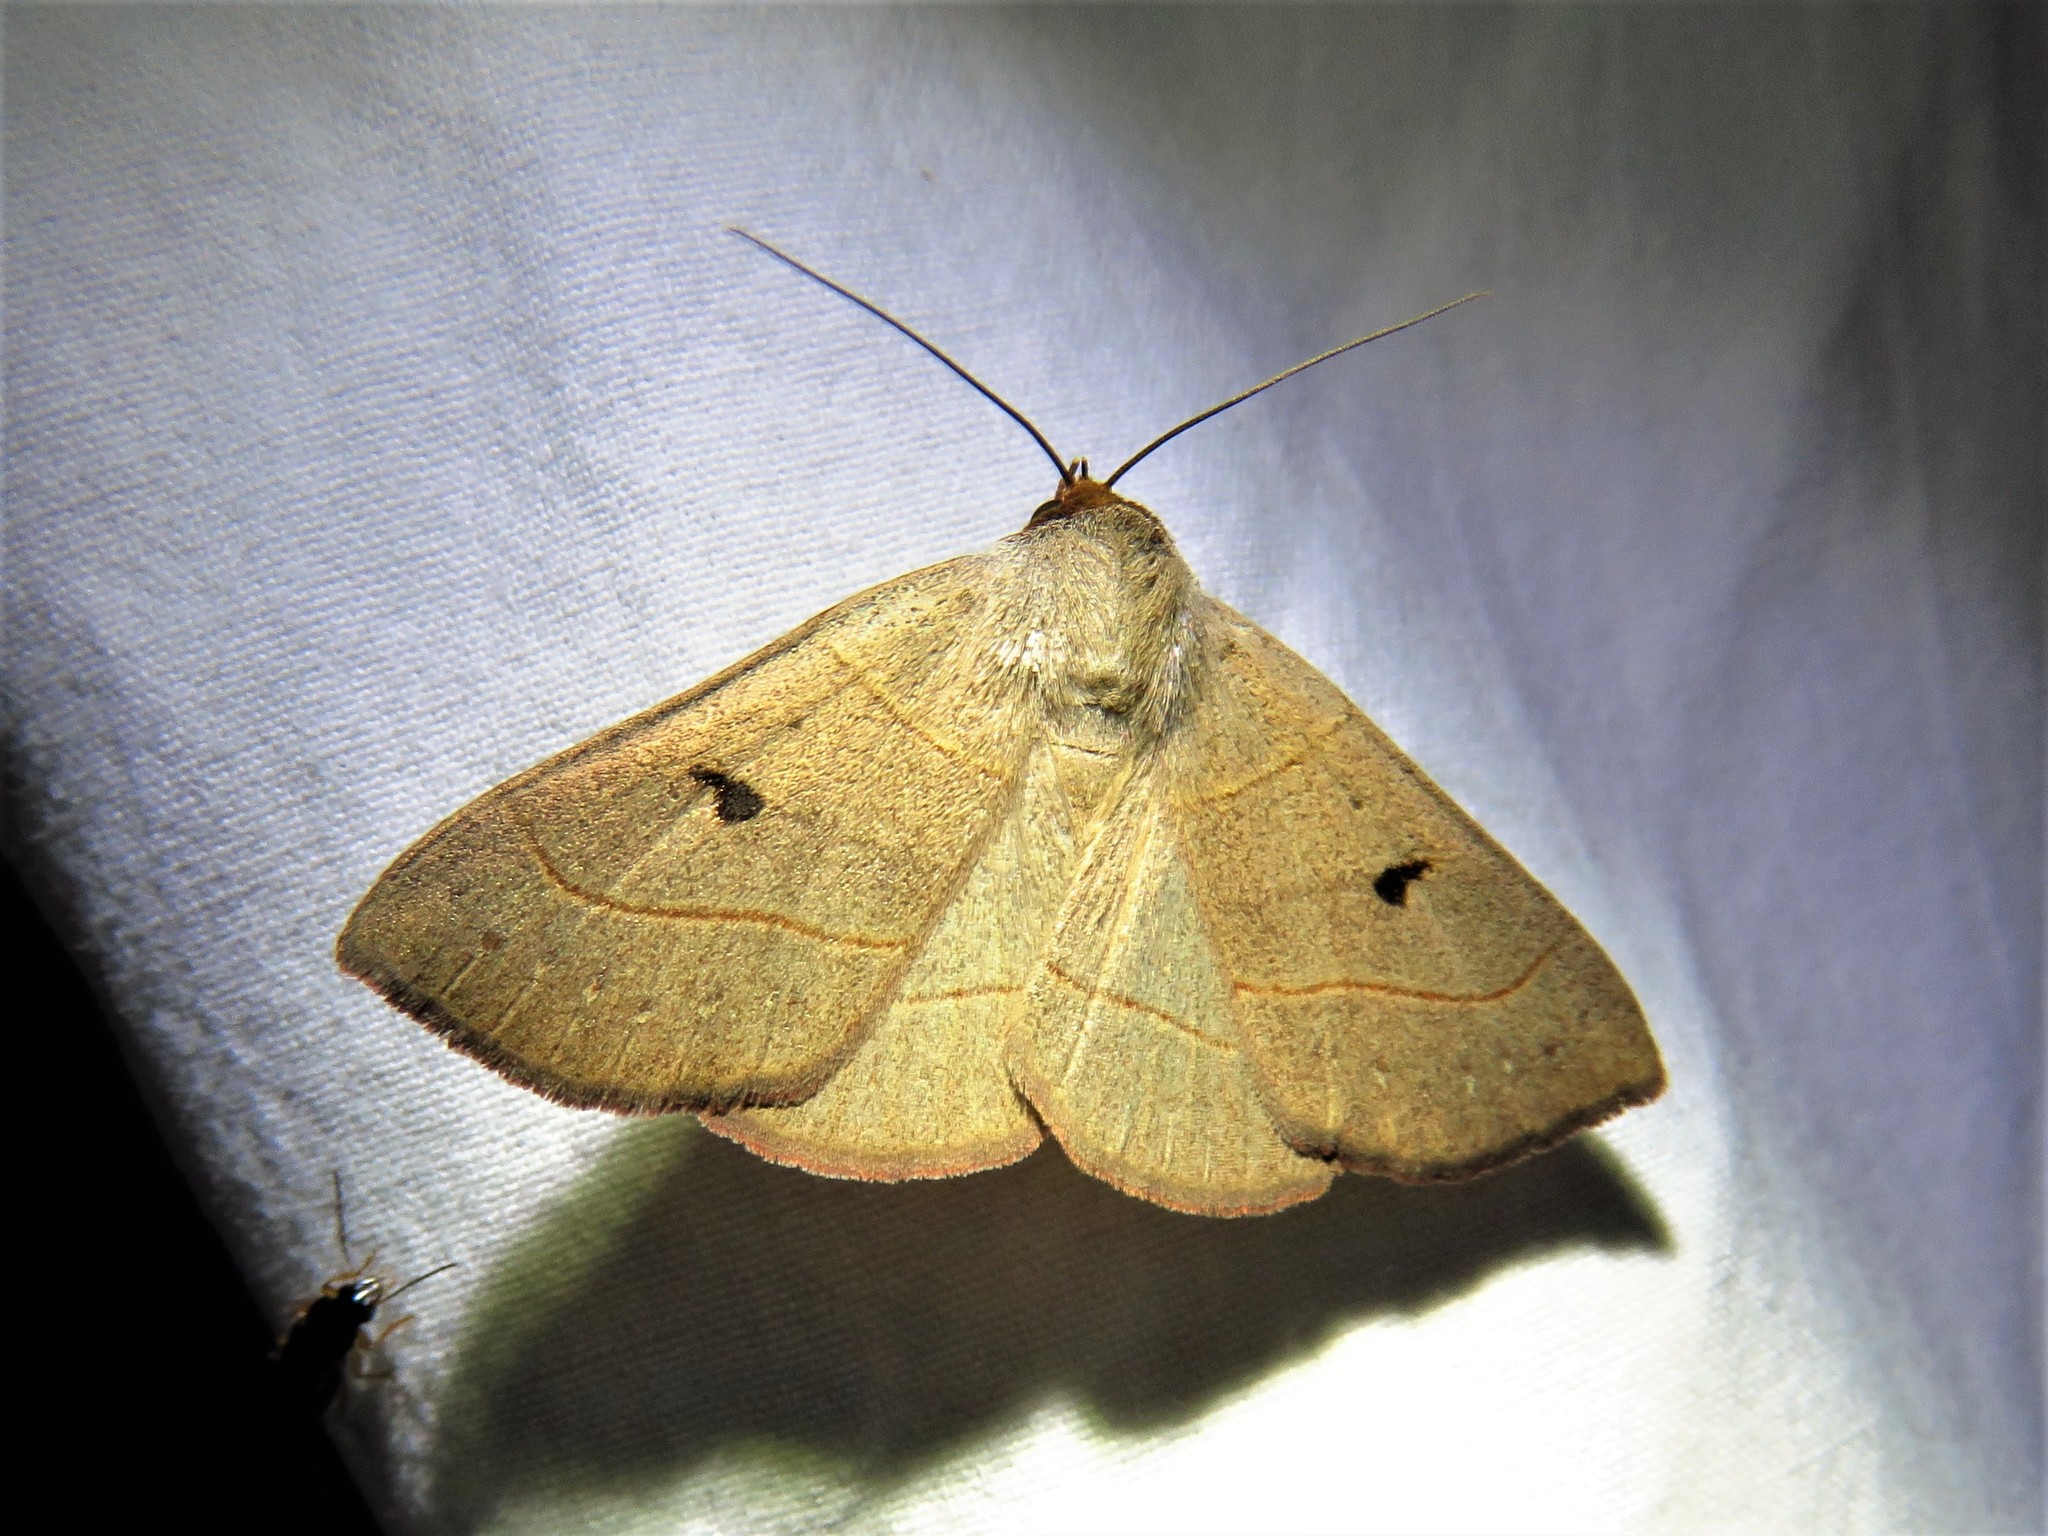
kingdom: Animalia
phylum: Arthropoda
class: Insecta
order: Lepidoptera
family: Erebidae
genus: Panopoda
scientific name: Panopoda rufimargo
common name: Red-lined panopoda moth
